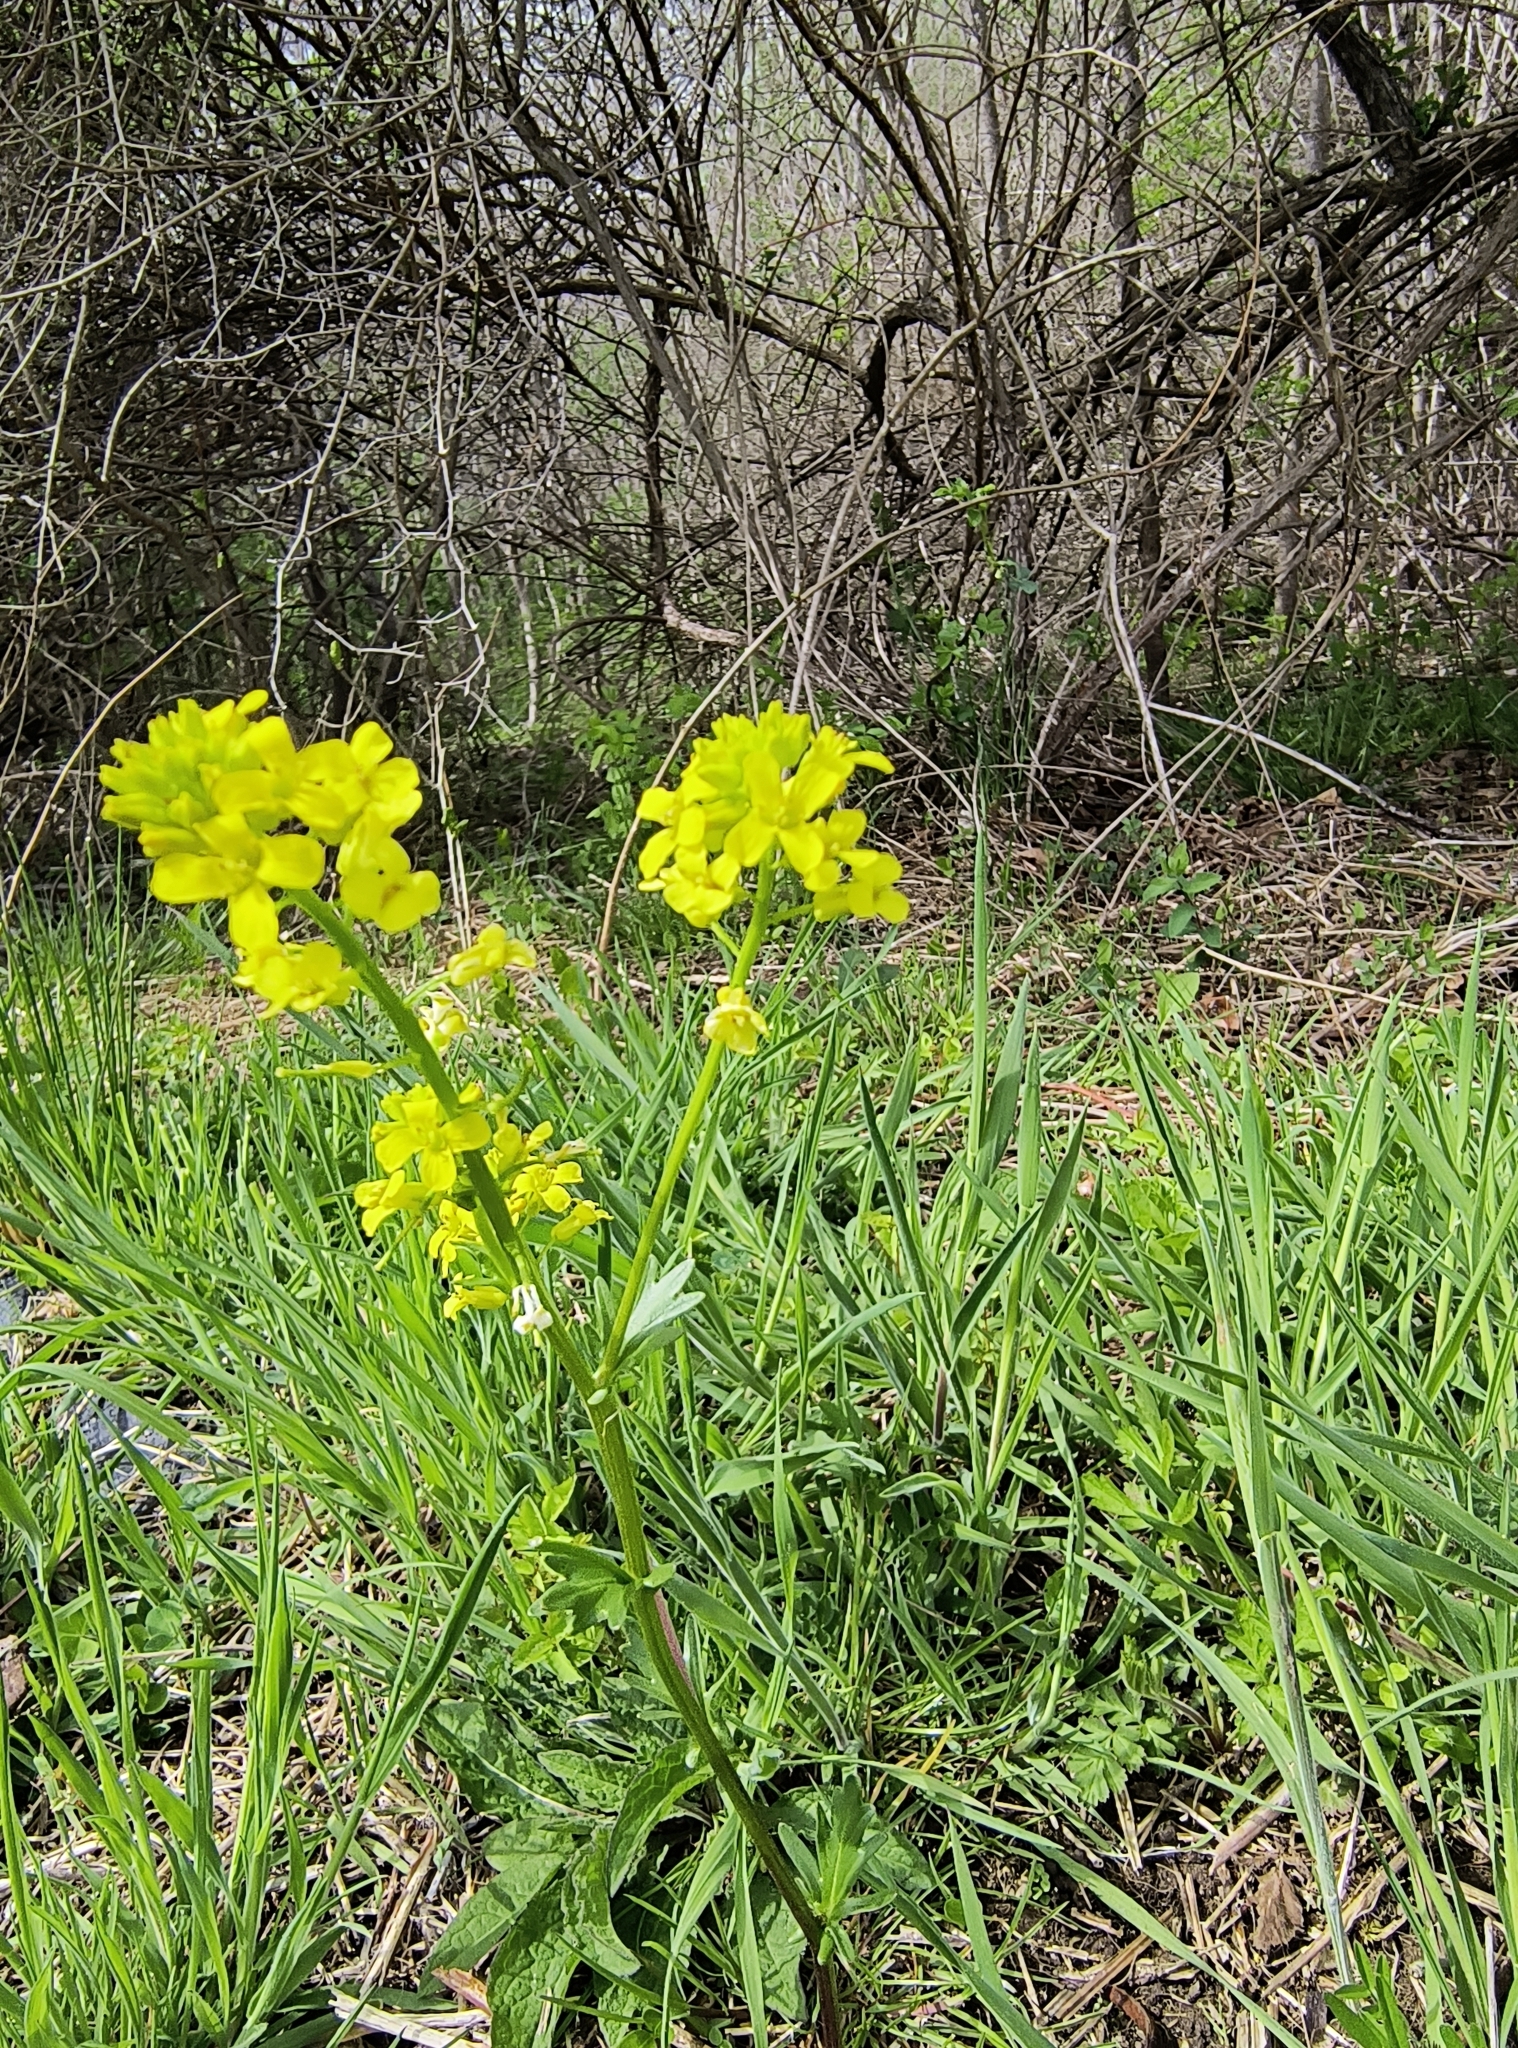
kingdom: Plantae
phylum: Tracheophyta
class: Magnoliopsida
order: Brassicales
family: Brassicaceae
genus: Barbarea
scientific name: Barbarea vulgaris
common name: Cressy-greens
